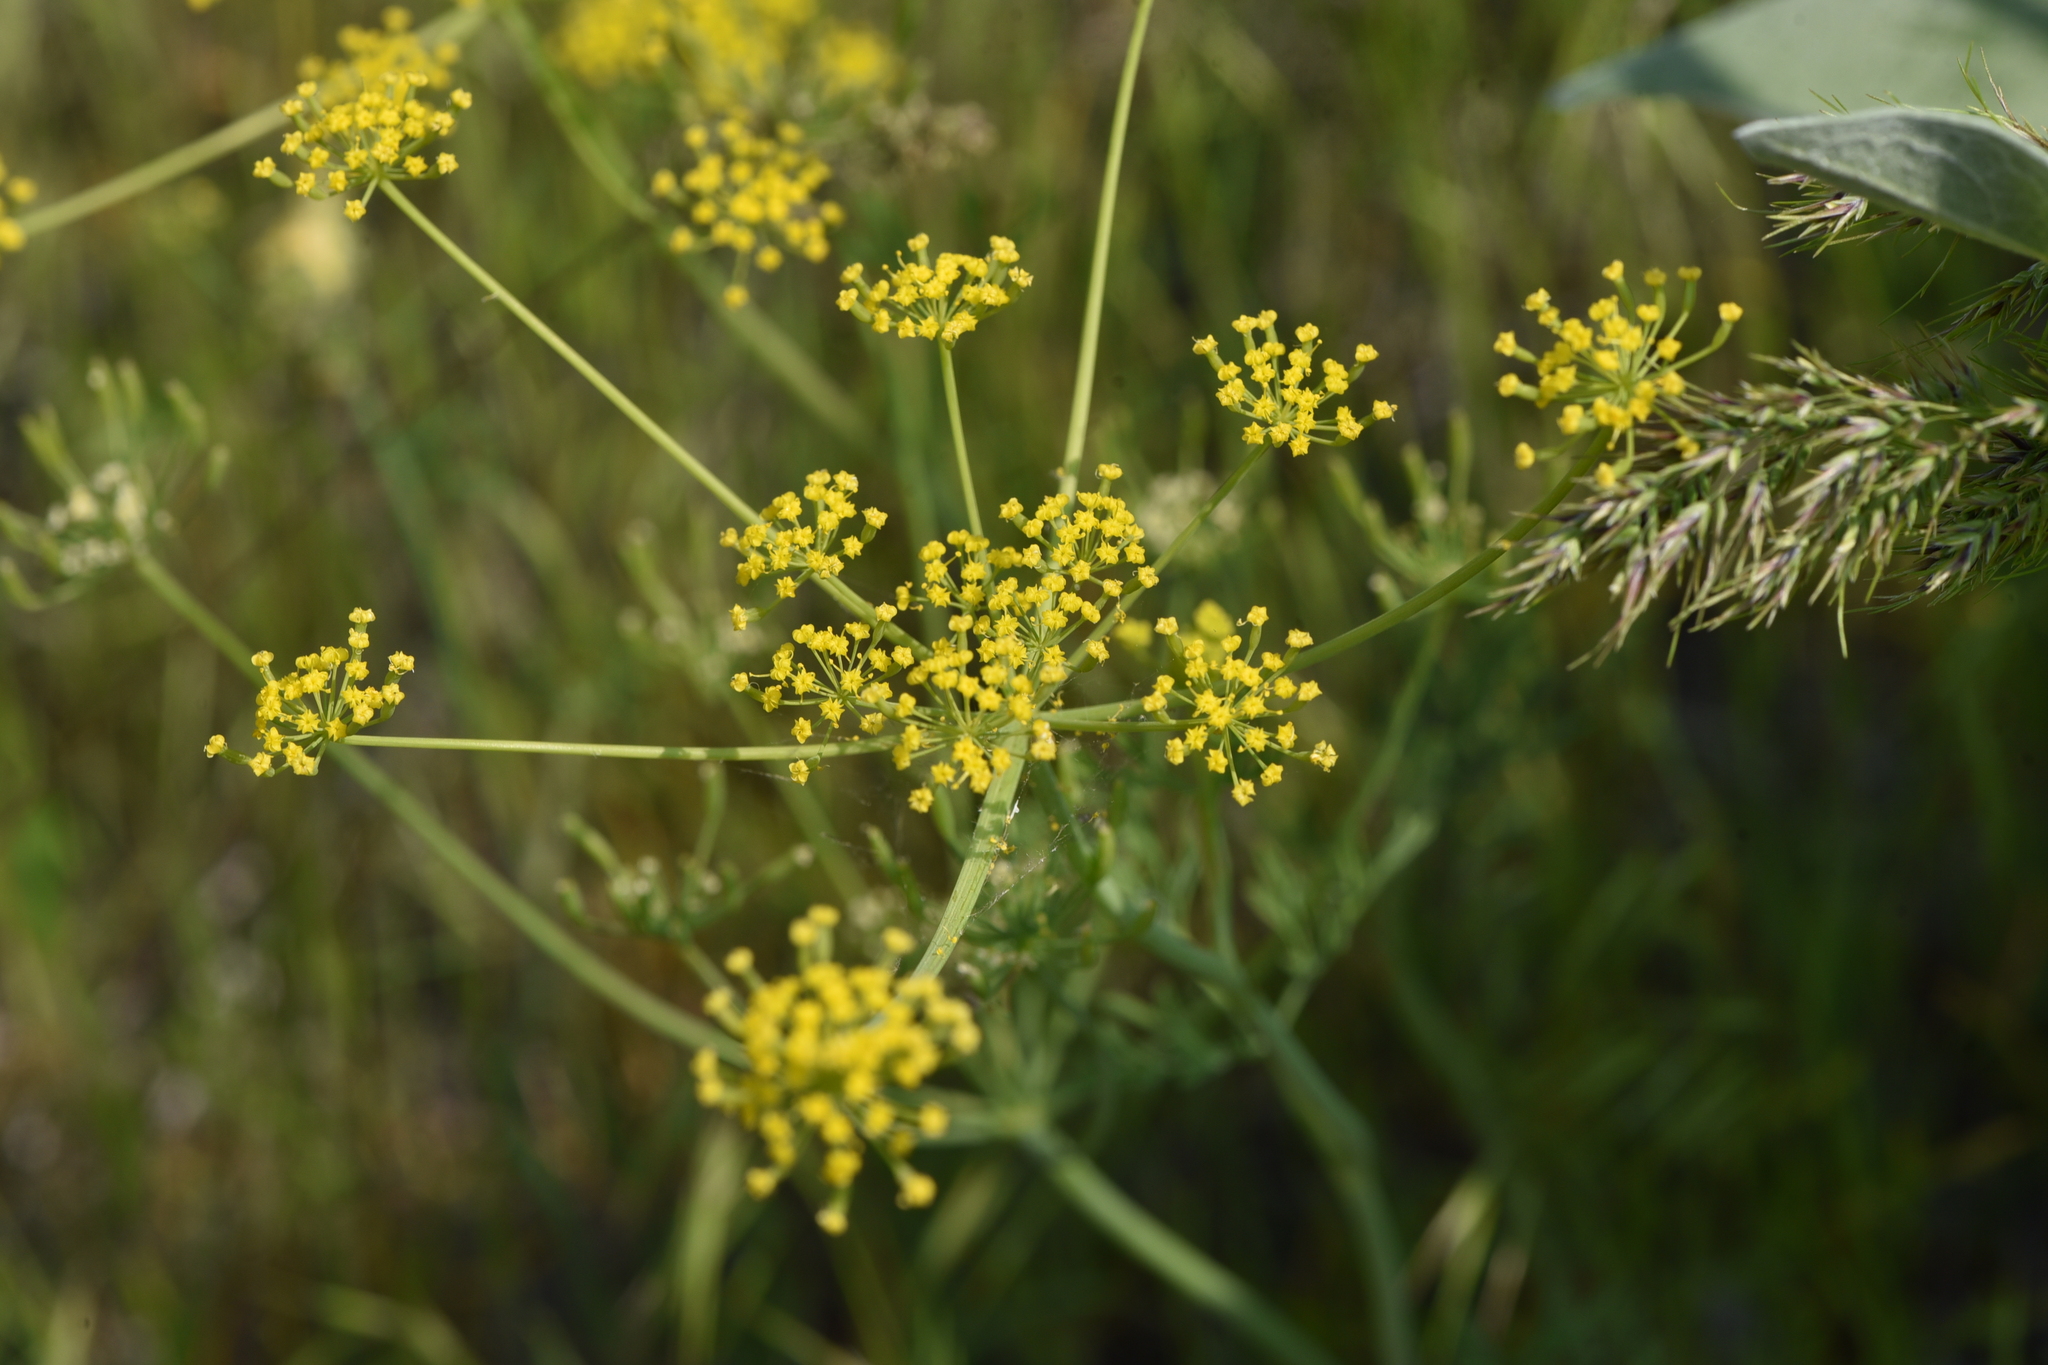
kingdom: Plantae
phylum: Tracheophyta
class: Magnoliopsida
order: Apiales
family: Apiaceae
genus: Lomatium
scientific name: Lomatium ambiguum
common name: Lacy lomatium
